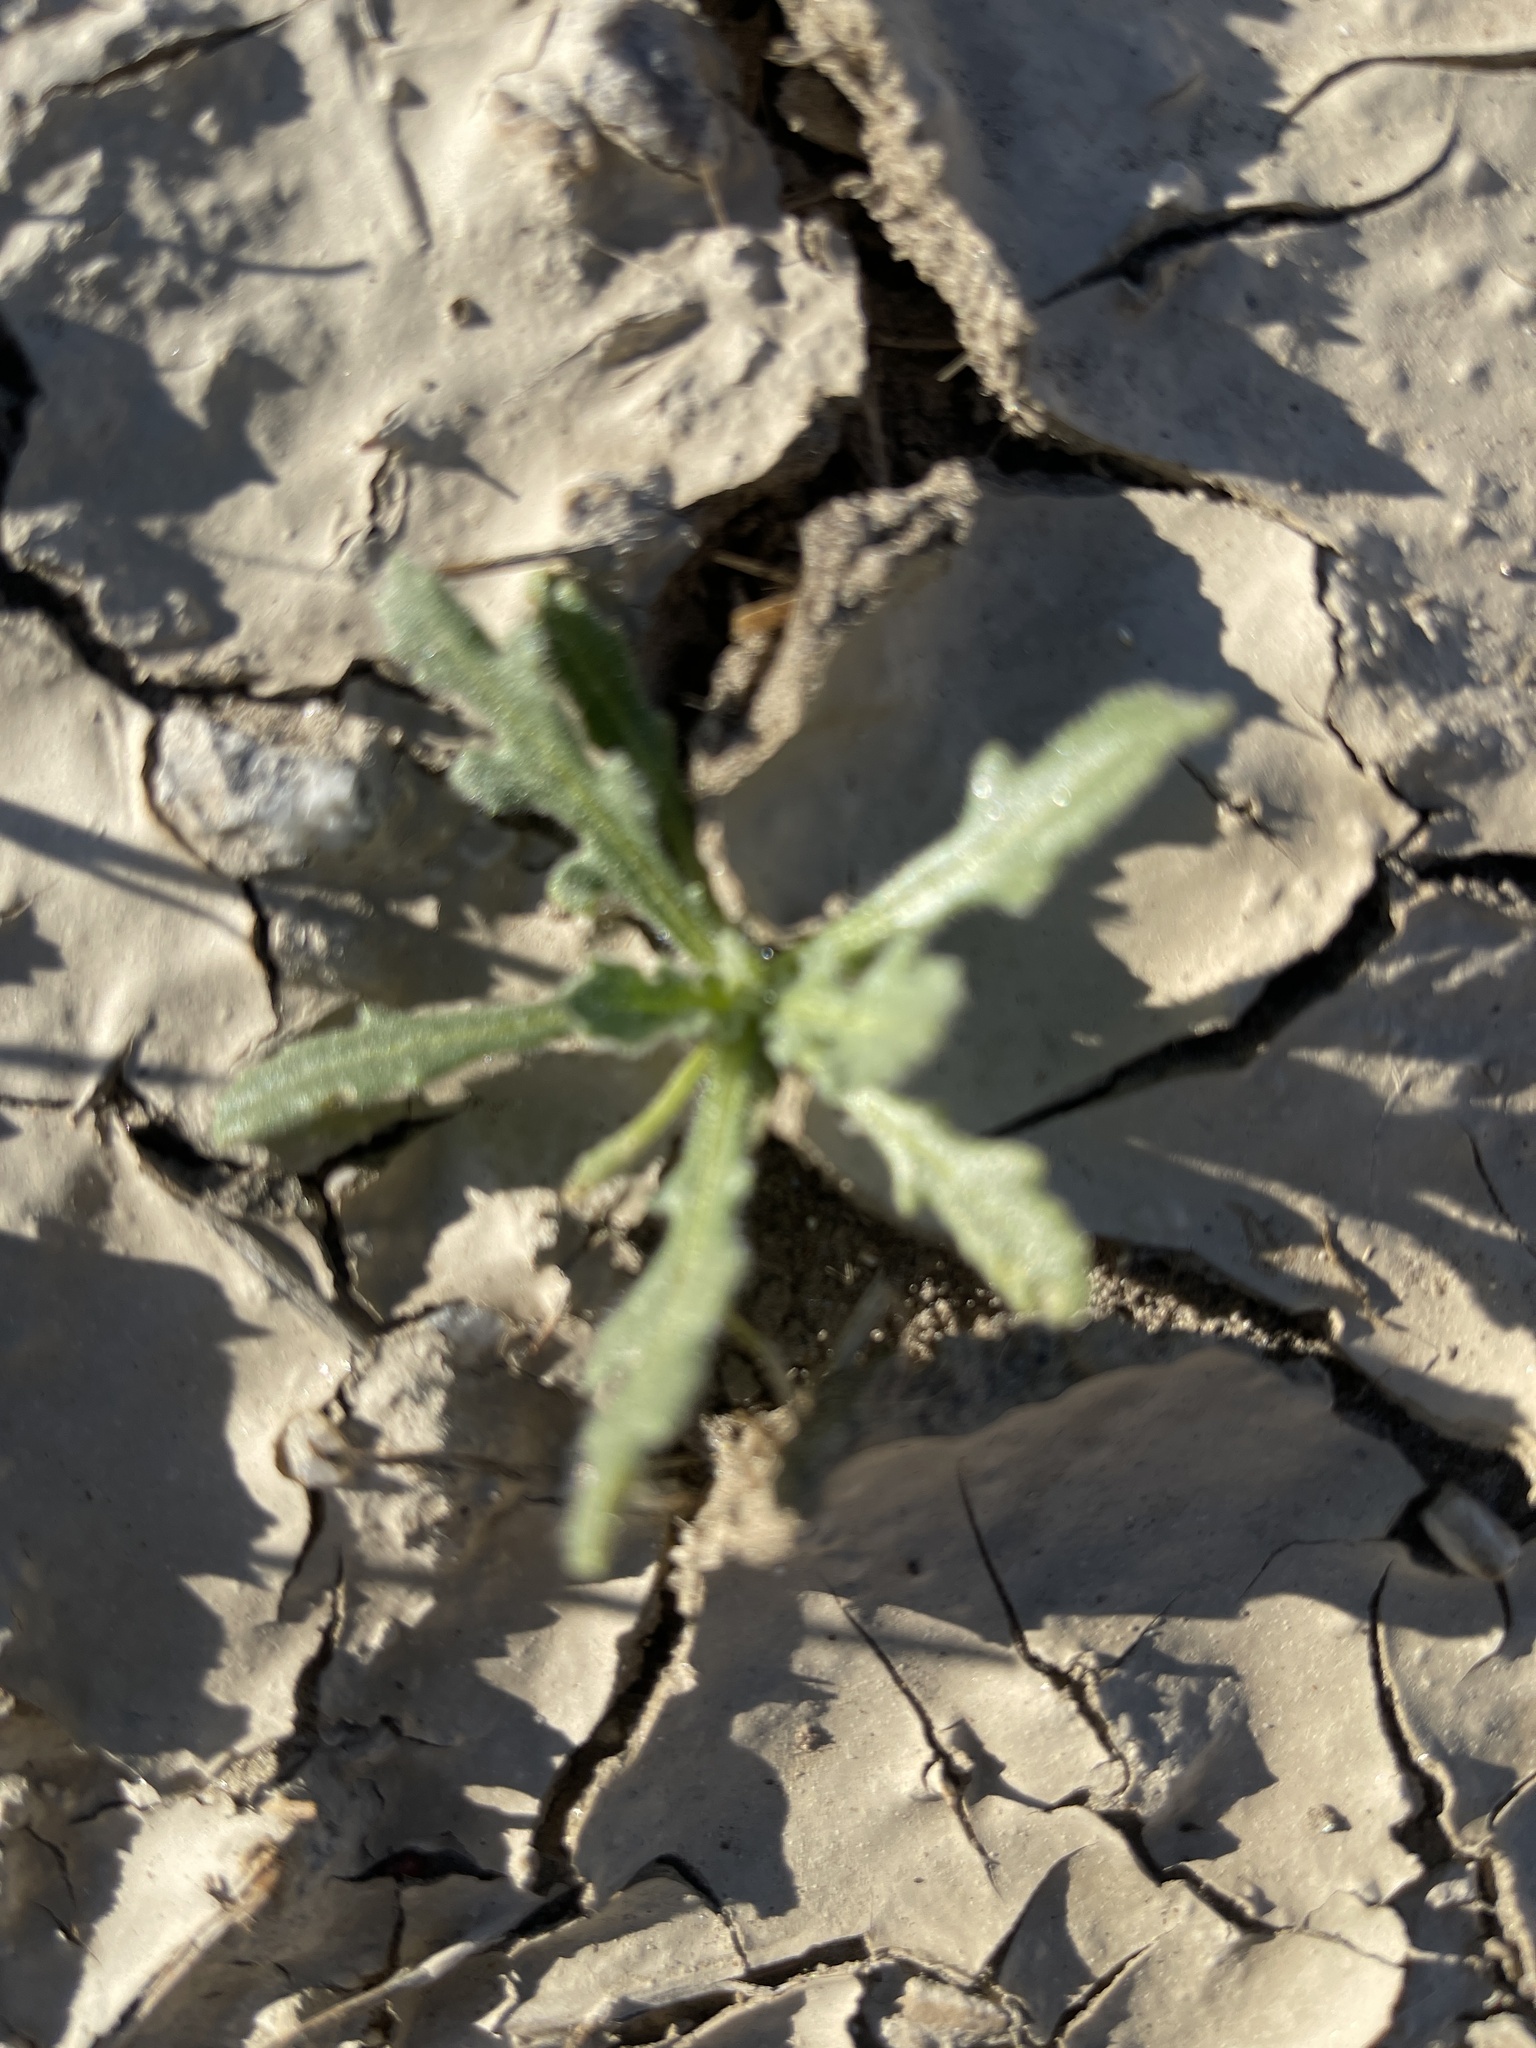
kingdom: Plantae
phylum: Tracheophyta
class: Magnoliopsida
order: Asterales
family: Asteraceae
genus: Volutaria
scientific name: Volutaria tubuliflora
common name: Desert knapweed
